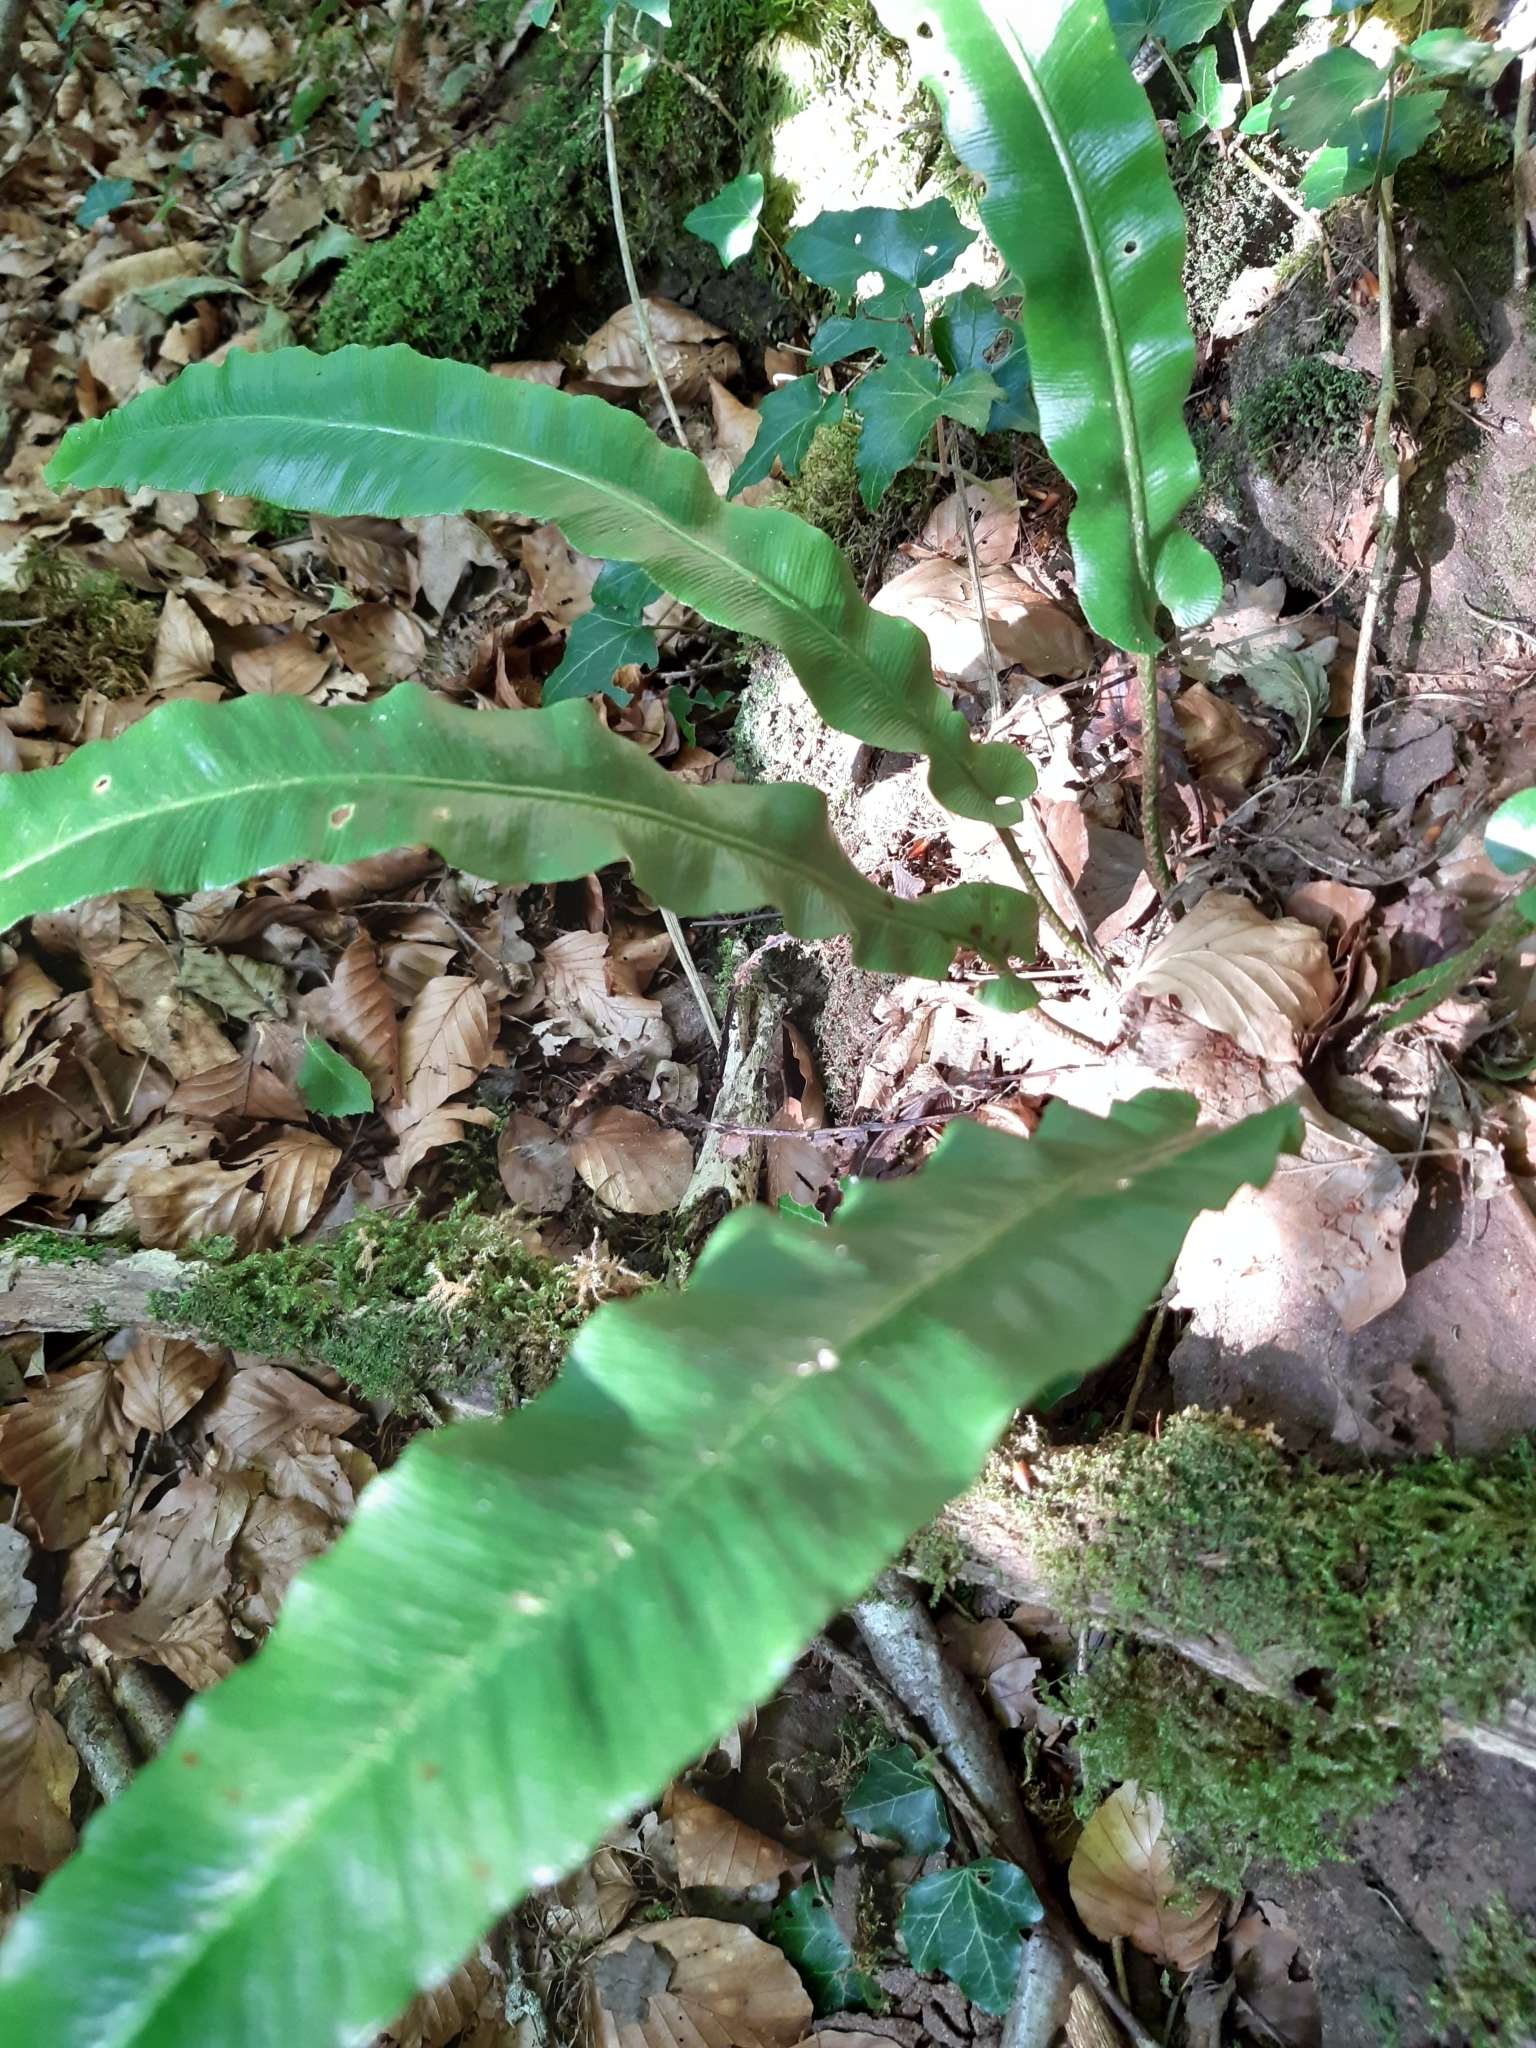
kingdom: Plantae
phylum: Tracheophyta
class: Polypodiopsida
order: Polypodiales
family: Aspleniaceae
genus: Asplenium
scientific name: Asplenium scolopendrium
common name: Hart's-tongue fern
